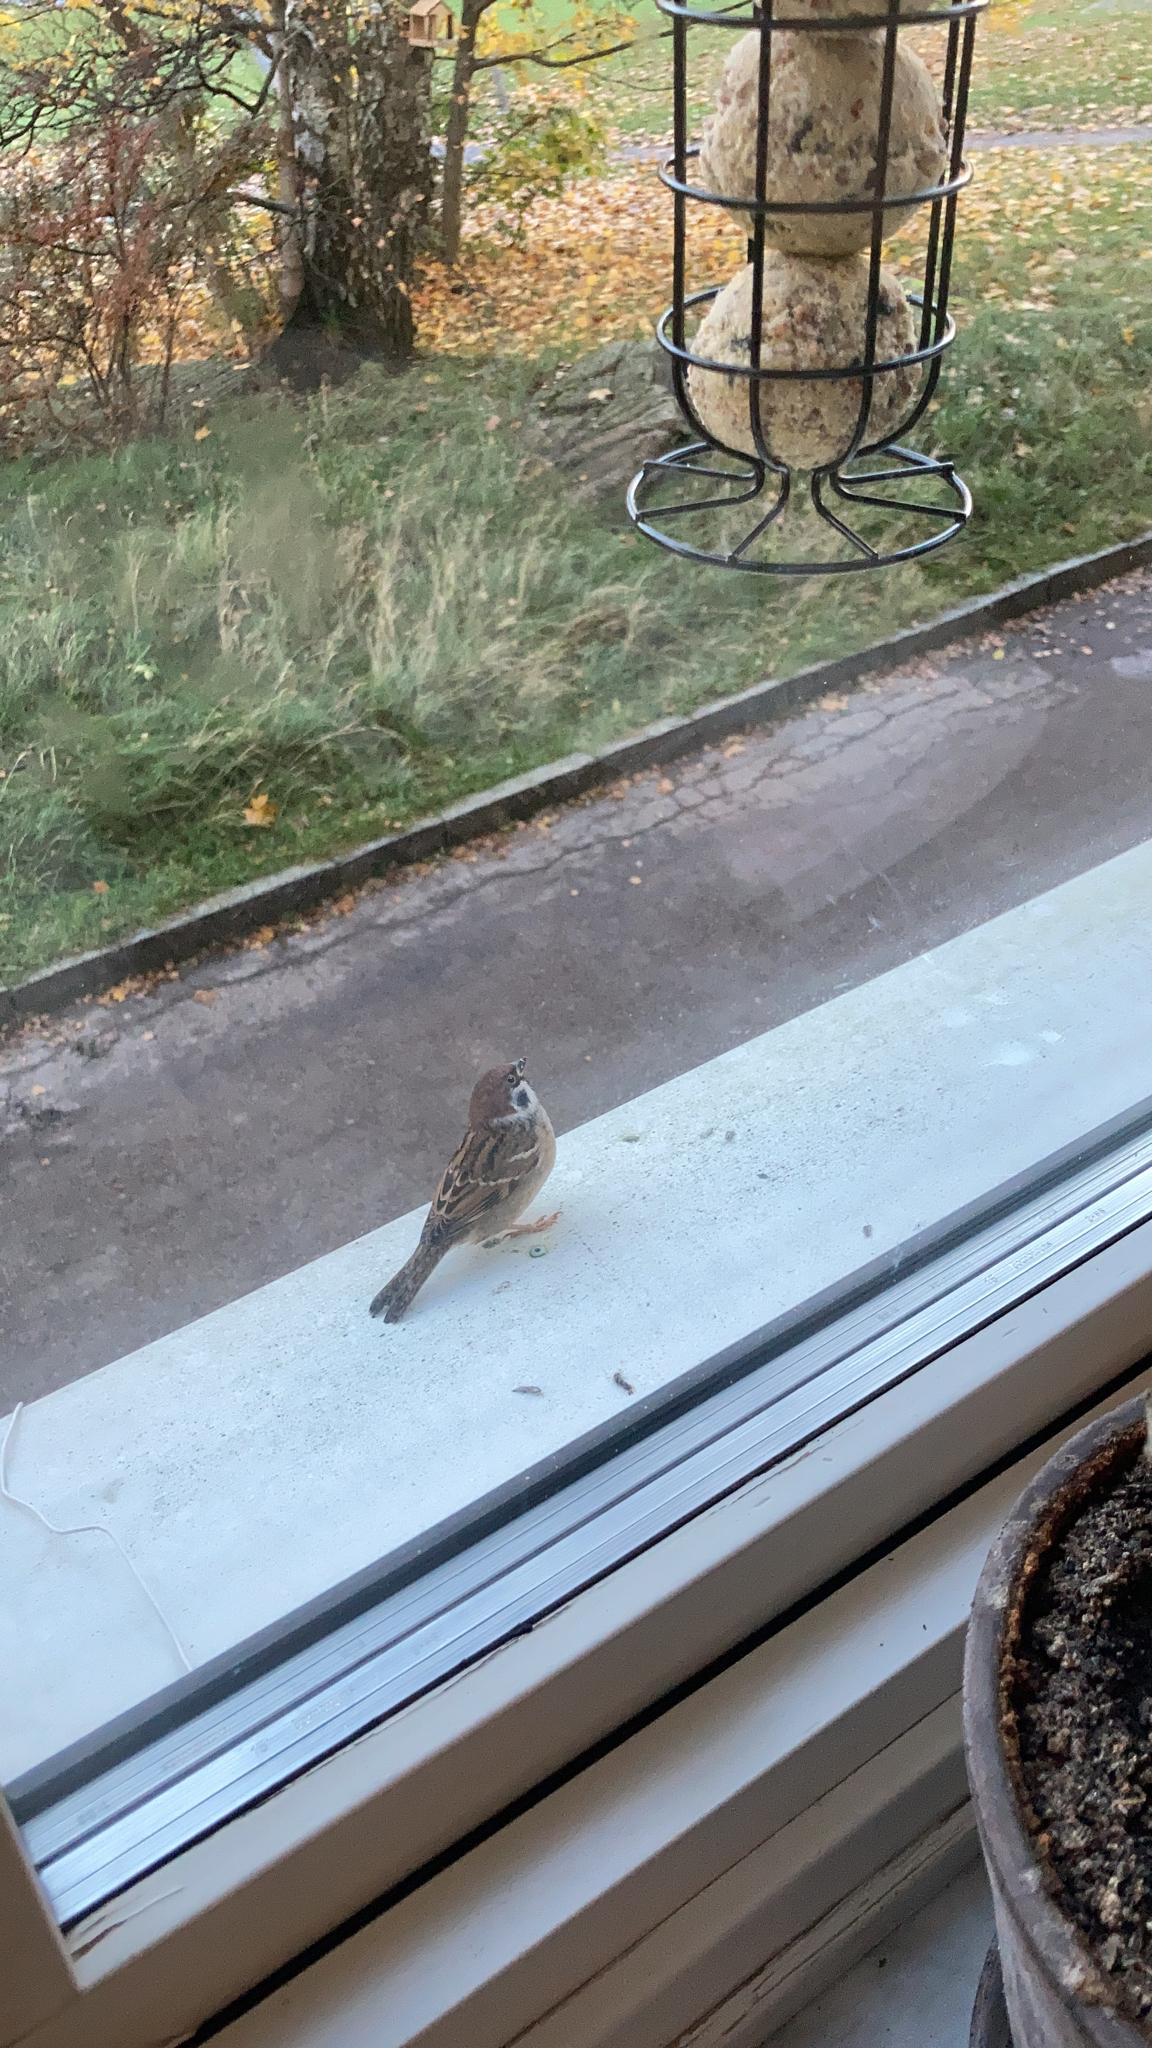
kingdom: Animalia
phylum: Chordata
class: Aves
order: Passeriformes
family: Passeridae
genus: Passer
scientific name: Passer montanus
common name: Eurasian tree sparrow
